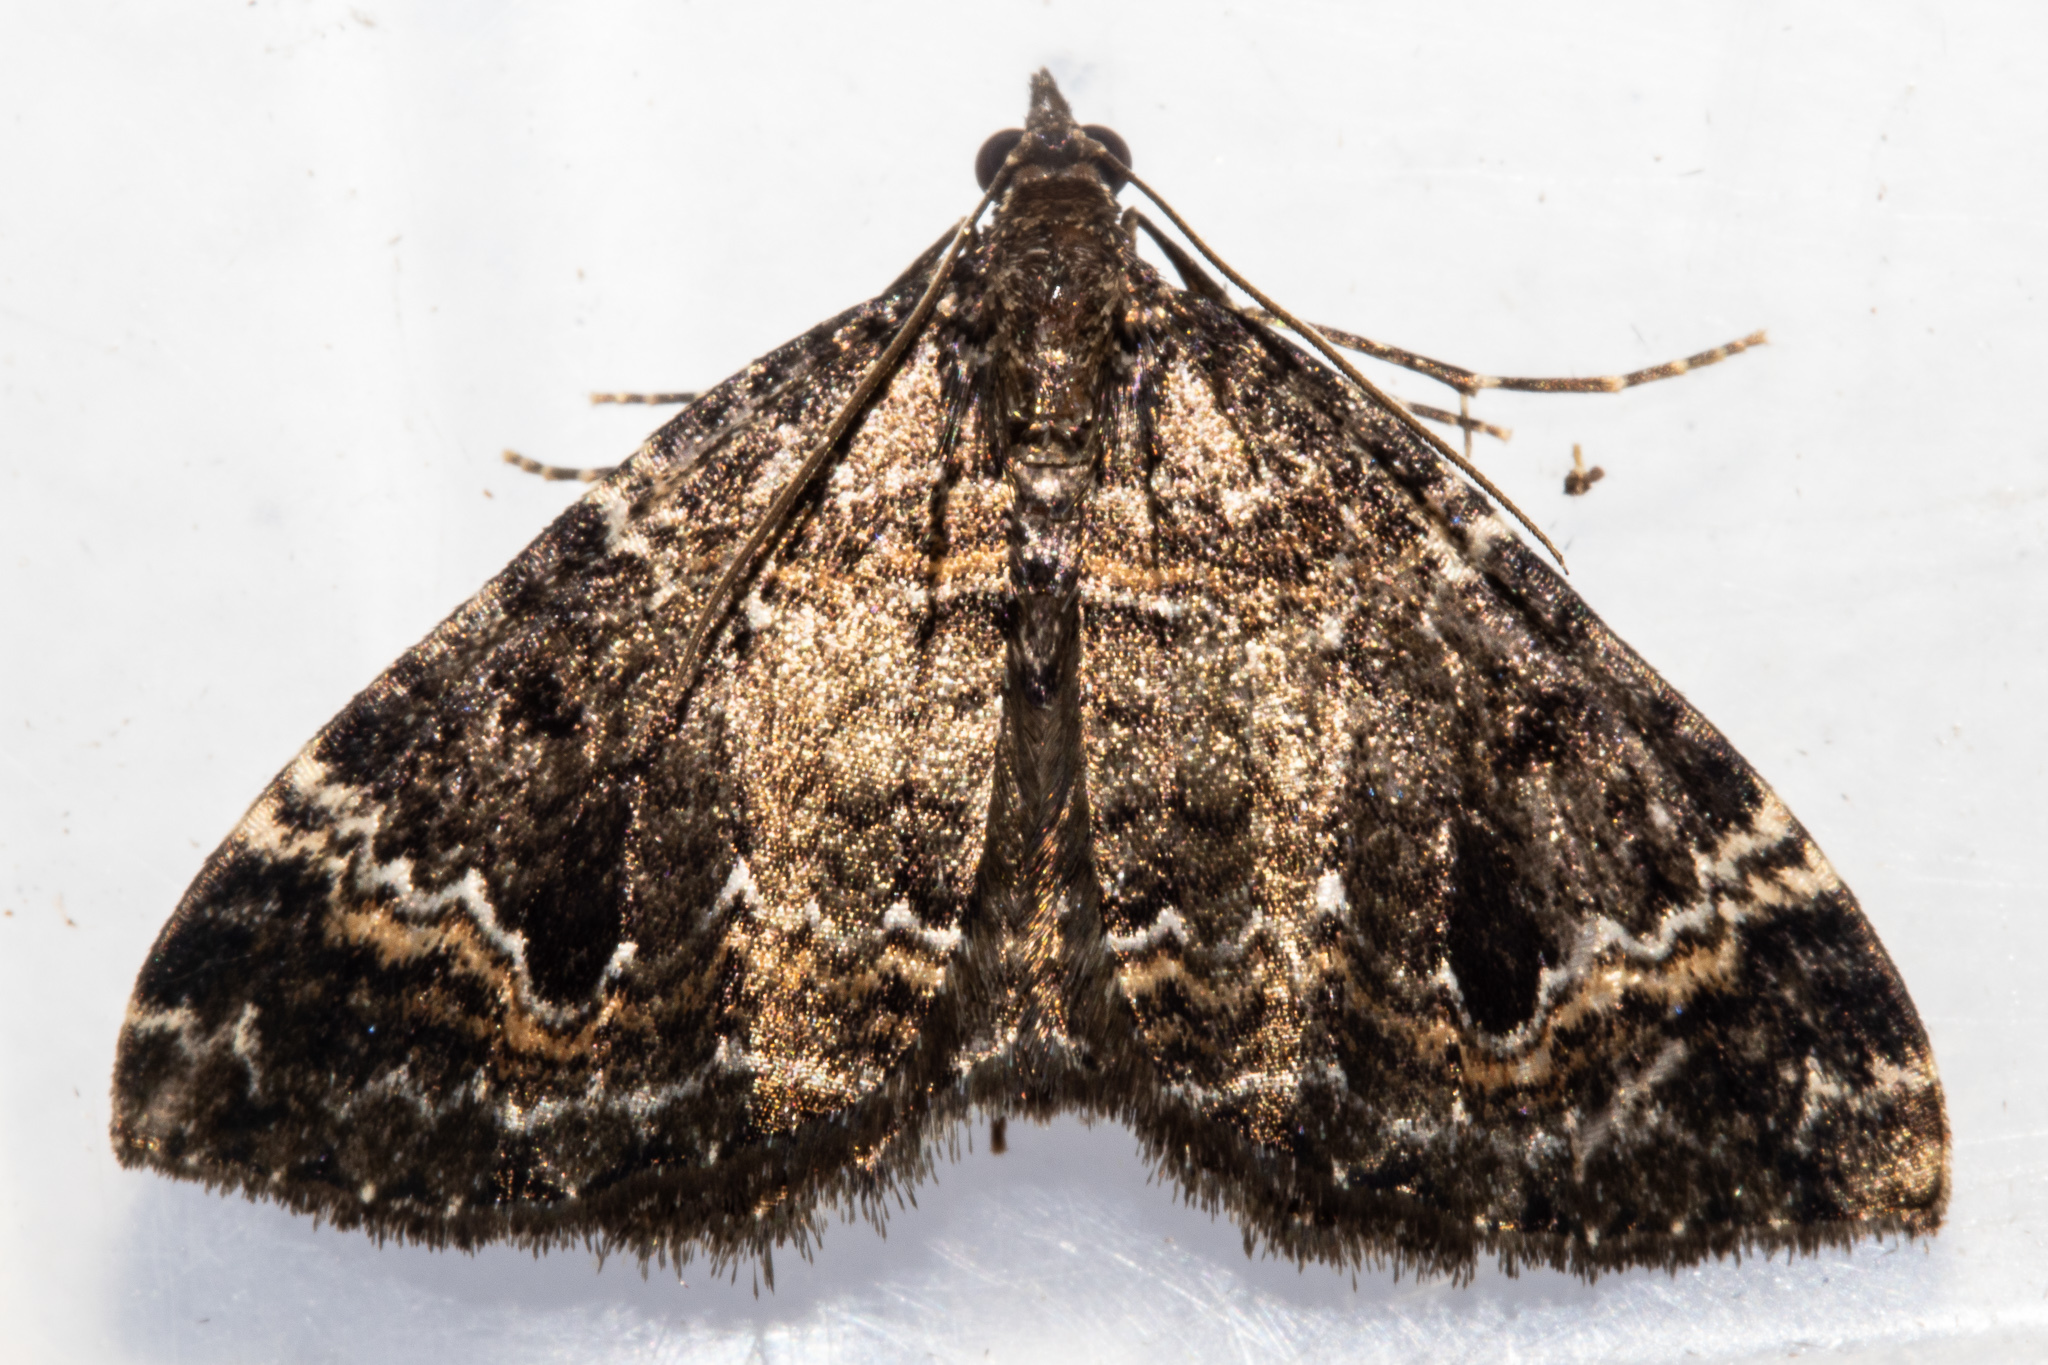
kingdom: Animalia
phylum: Arthropoda
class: Insecta
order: Lepidoptera
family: Geometridae
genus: Hydriomena
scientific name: Hydriomena hemizona
